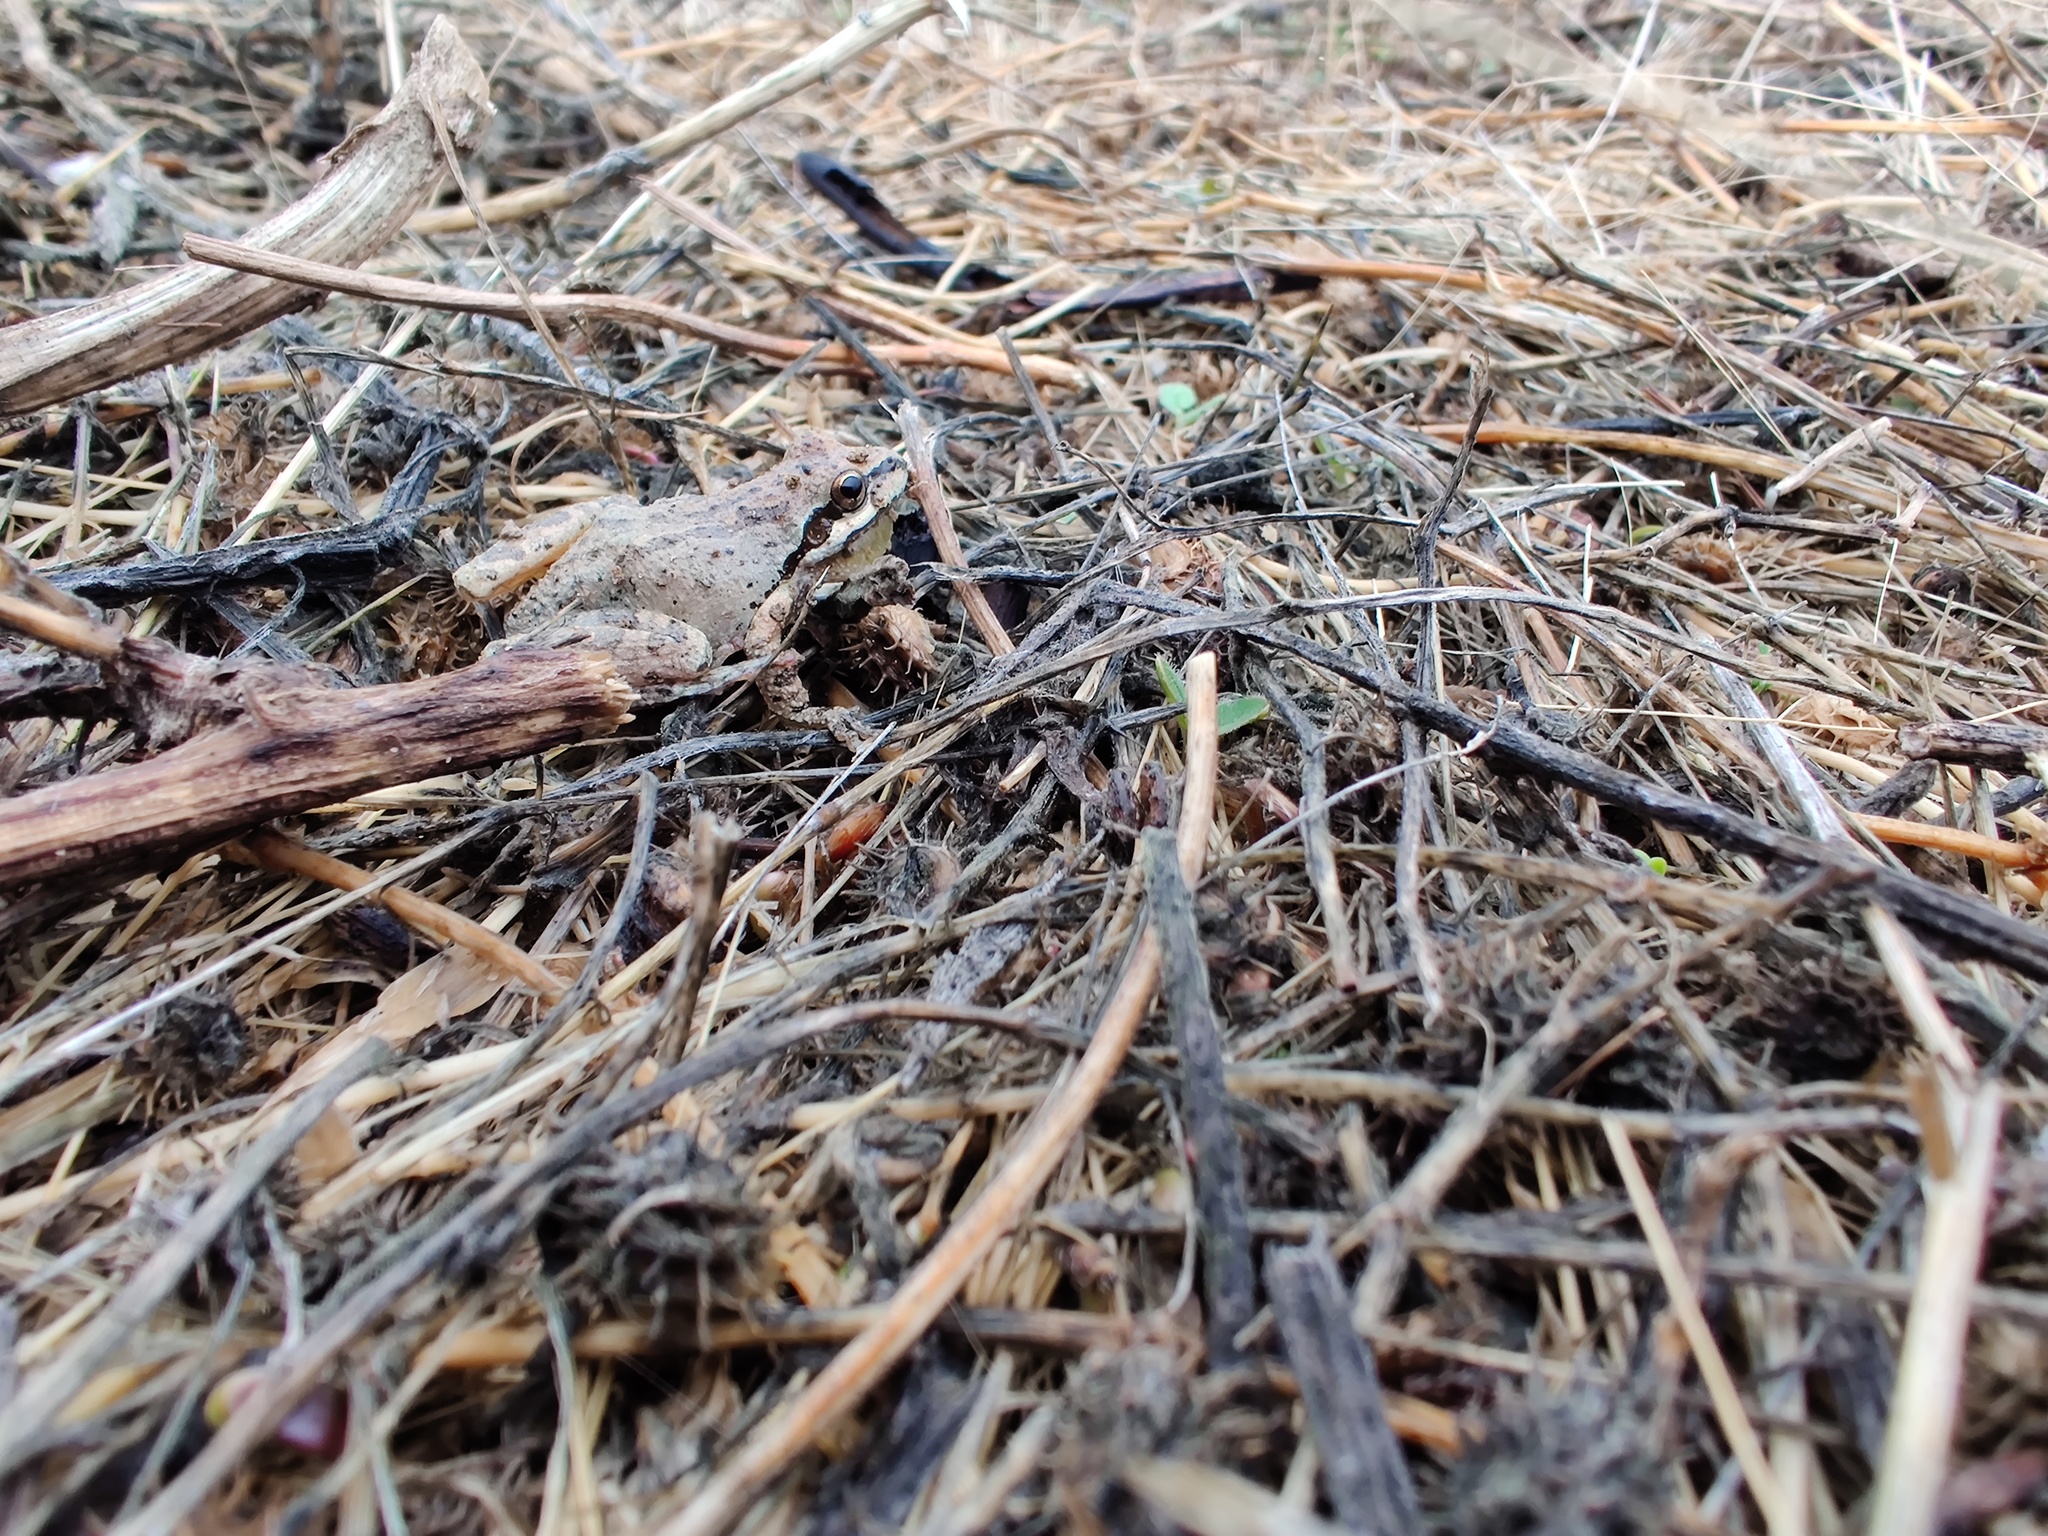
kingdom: Animalia
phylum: Chordata
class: Amphibia
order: Anura
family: Hylidae
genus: Pseudacris
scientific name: Pseudacris regilla
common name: Pacific chorus frog
